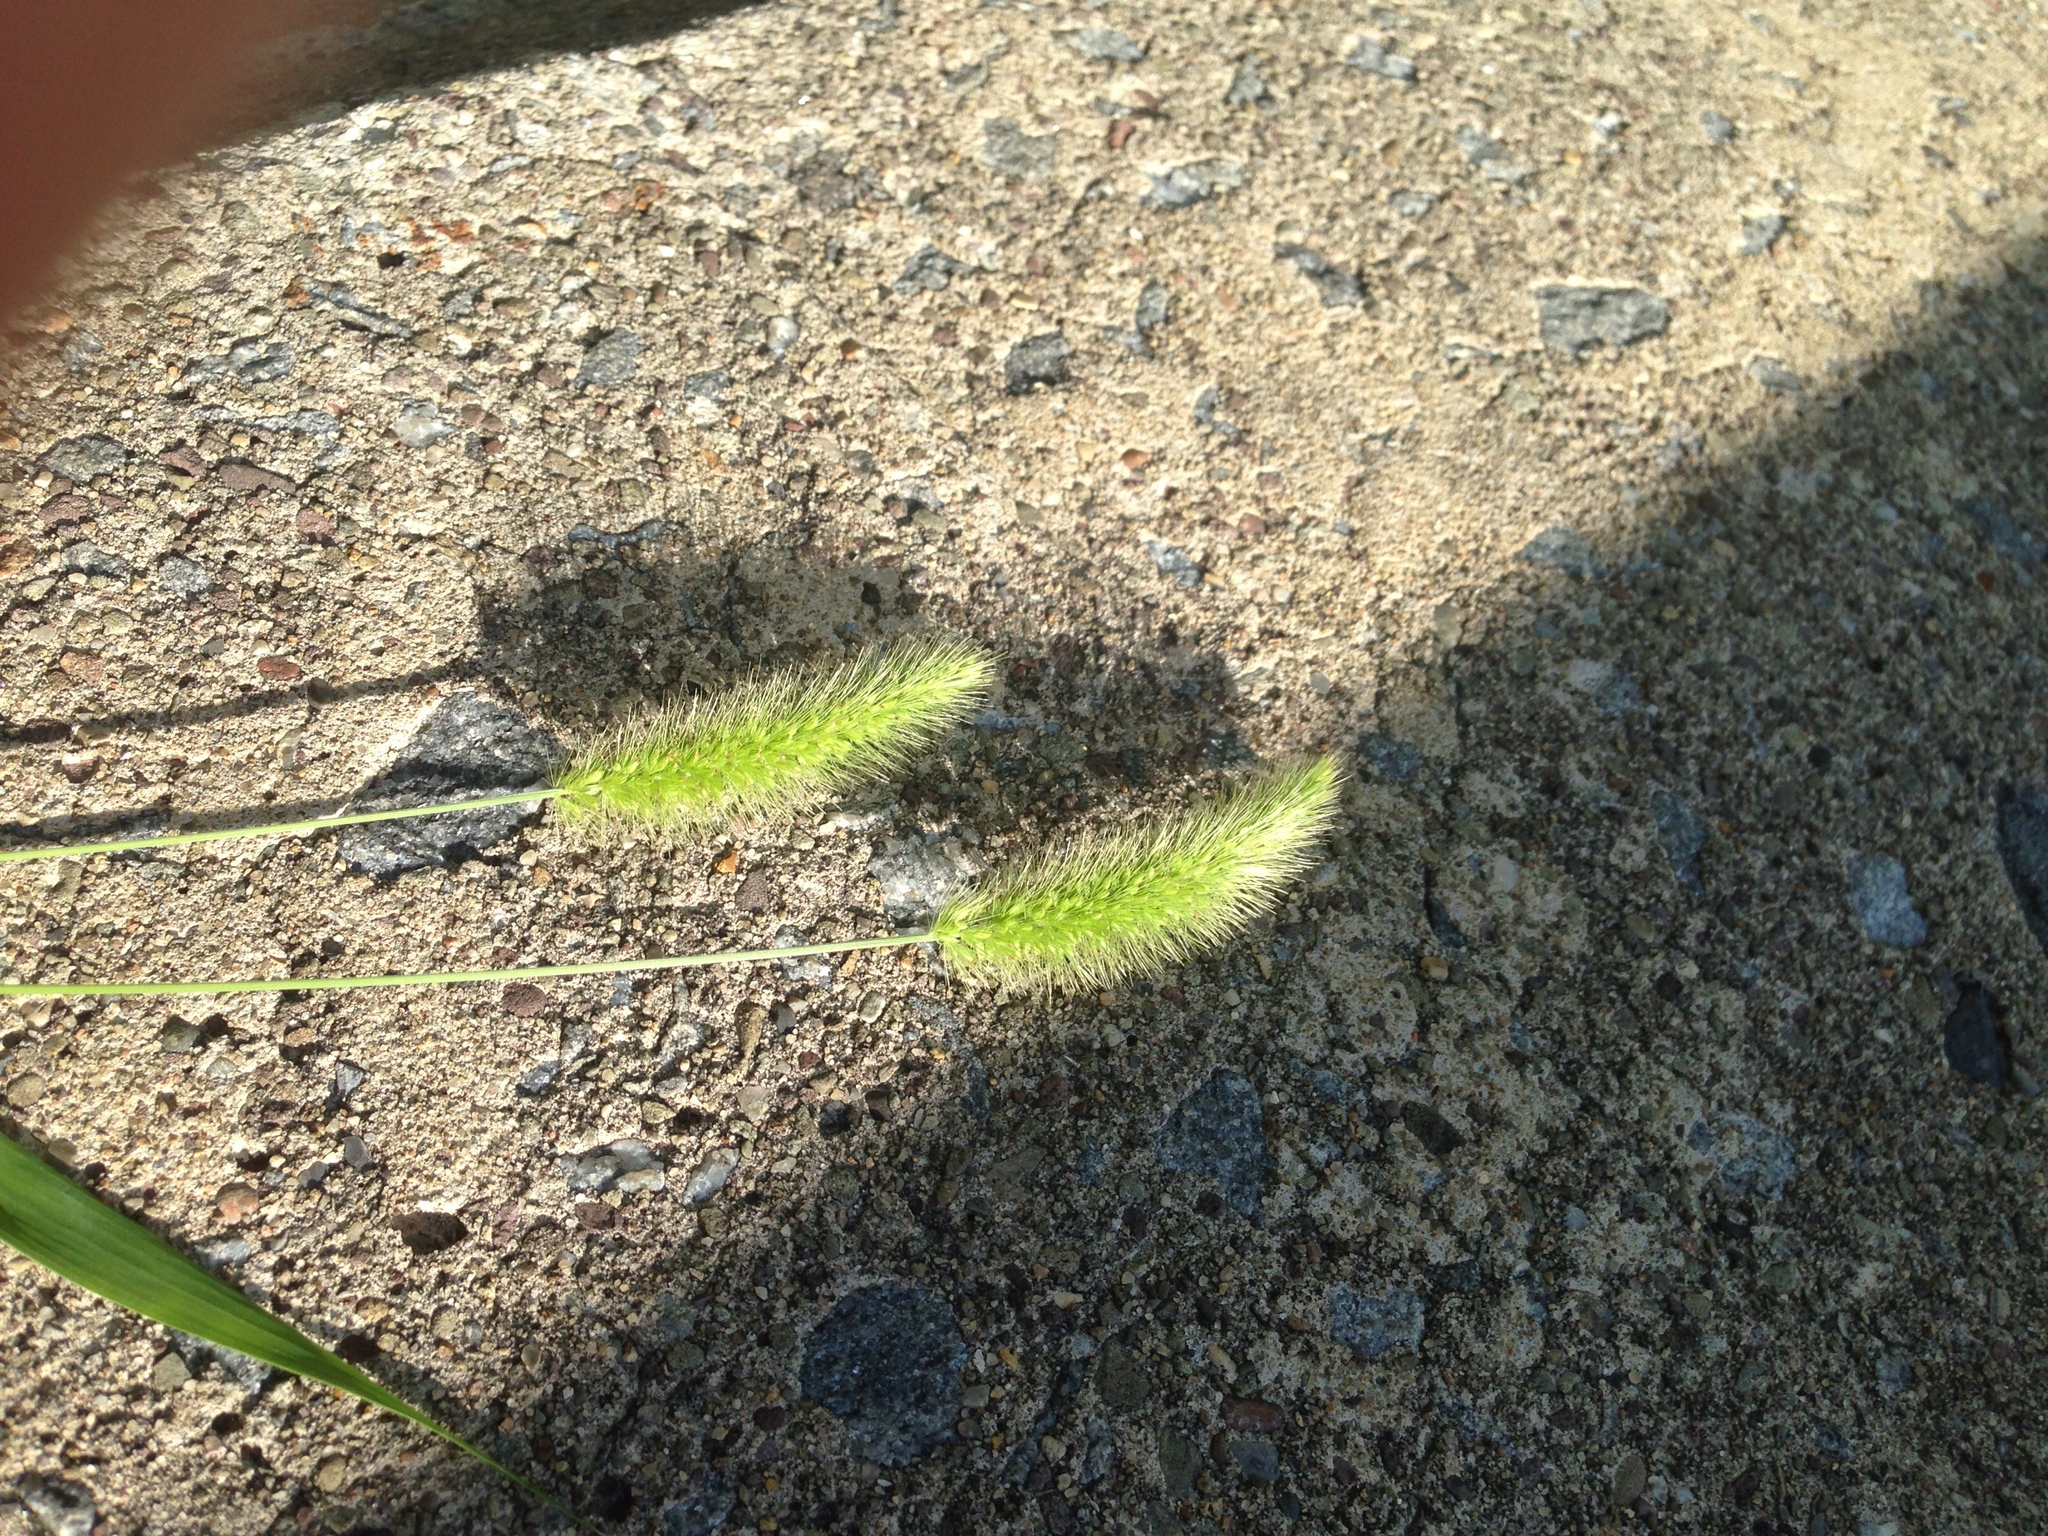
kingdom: Plantae
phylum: Tracheophyta
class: Liliopsida
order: Poales
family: Poaceae
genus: Setaria
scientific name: Setaria viridis
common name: Green bristlegrass
